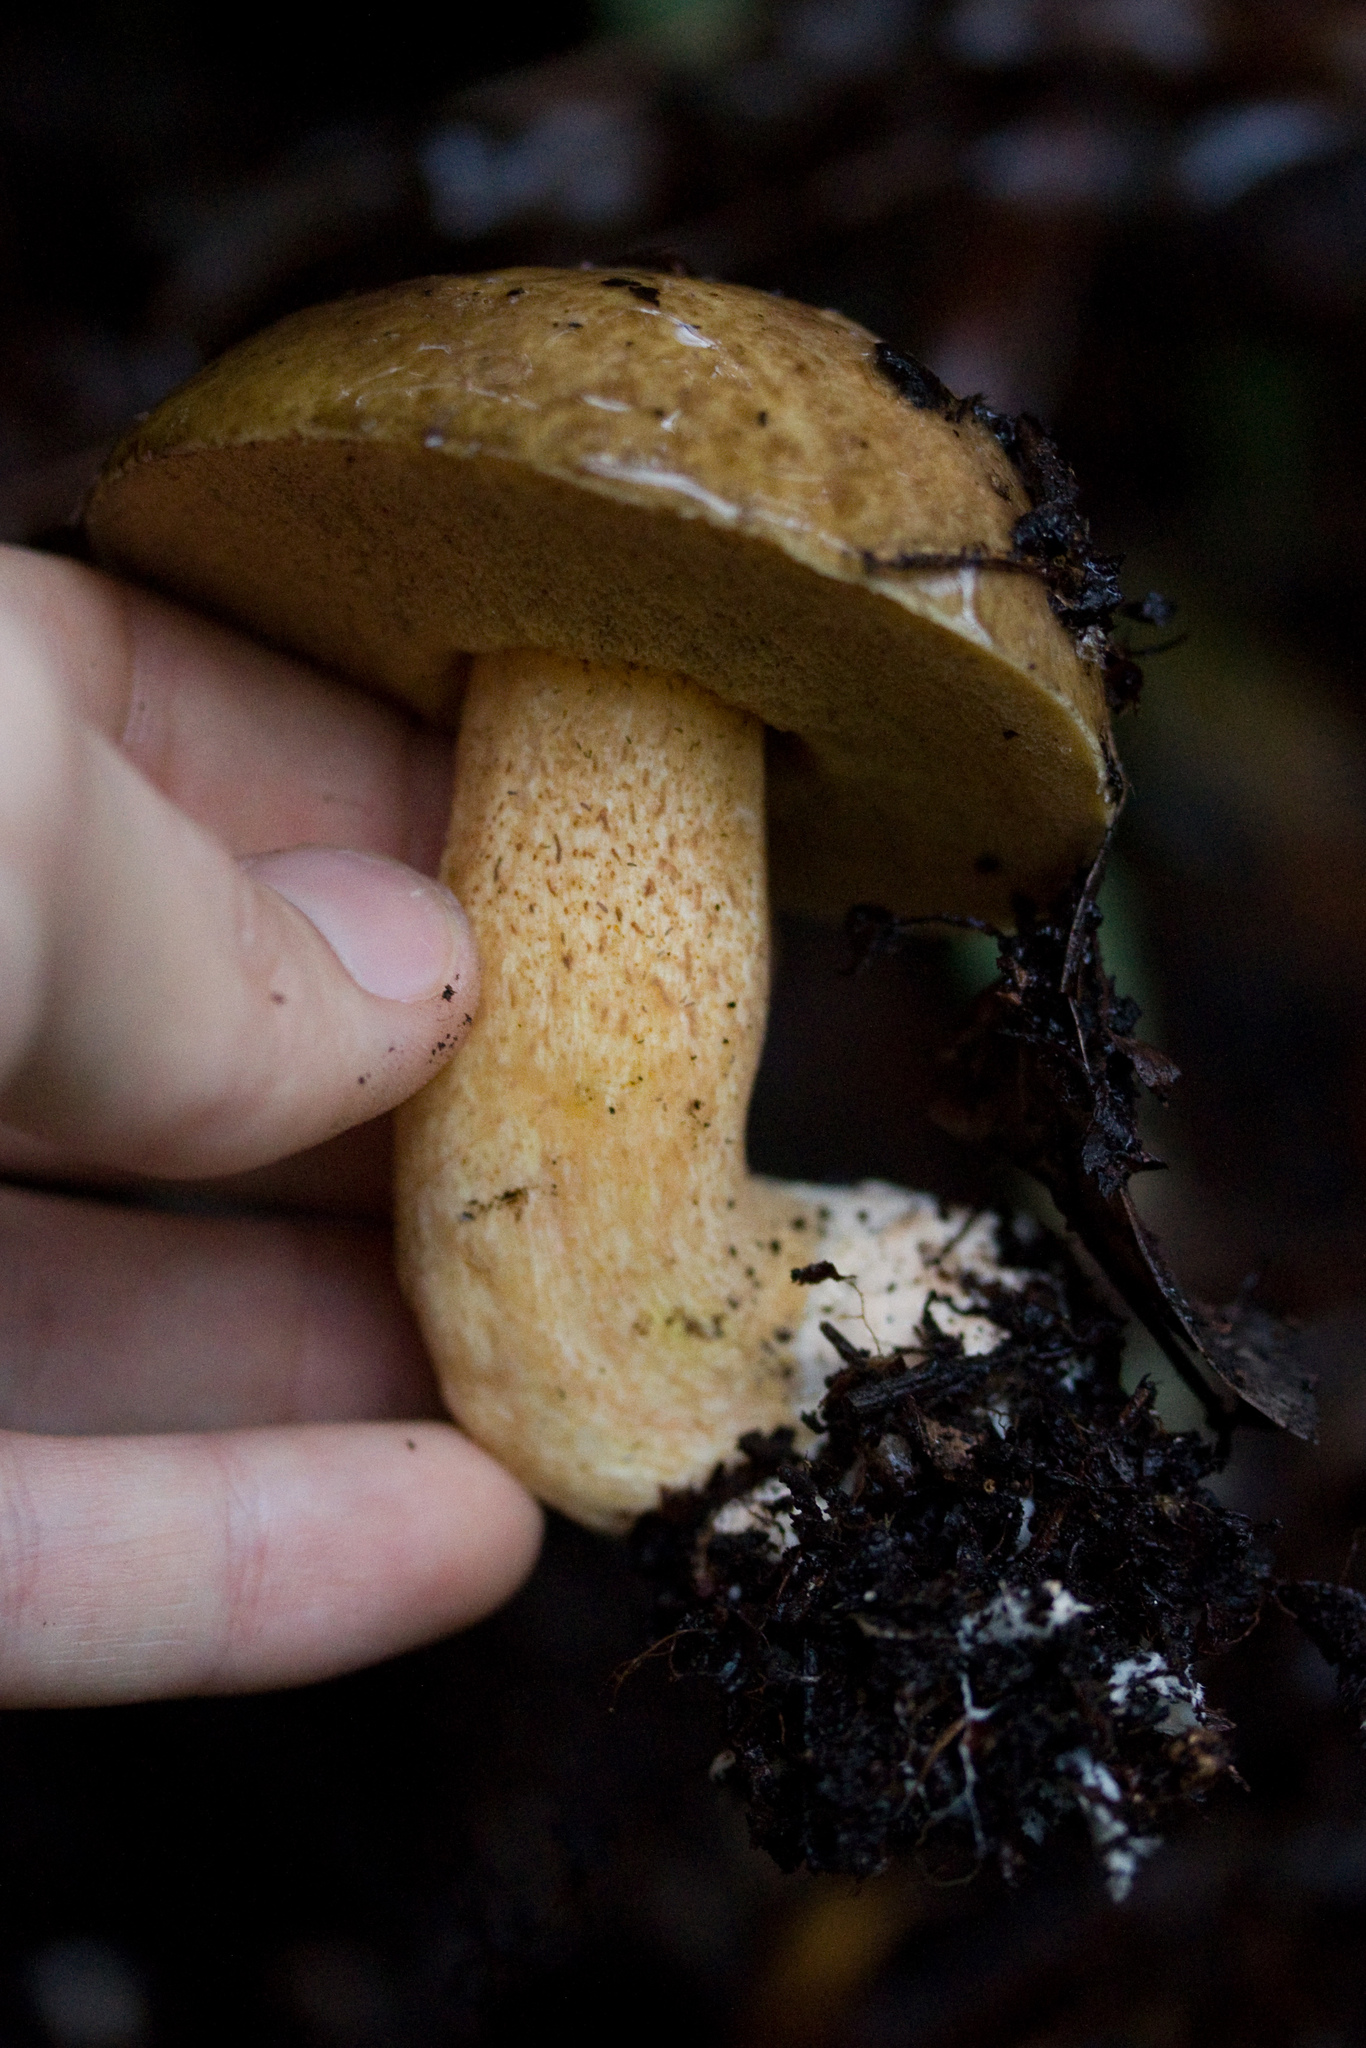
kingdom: Fungi
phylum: Basidiomycota
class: Agaricomycetes
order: Boletales
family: Suillaceae
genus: Suillus
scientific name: Suillus fuscotomentosus
